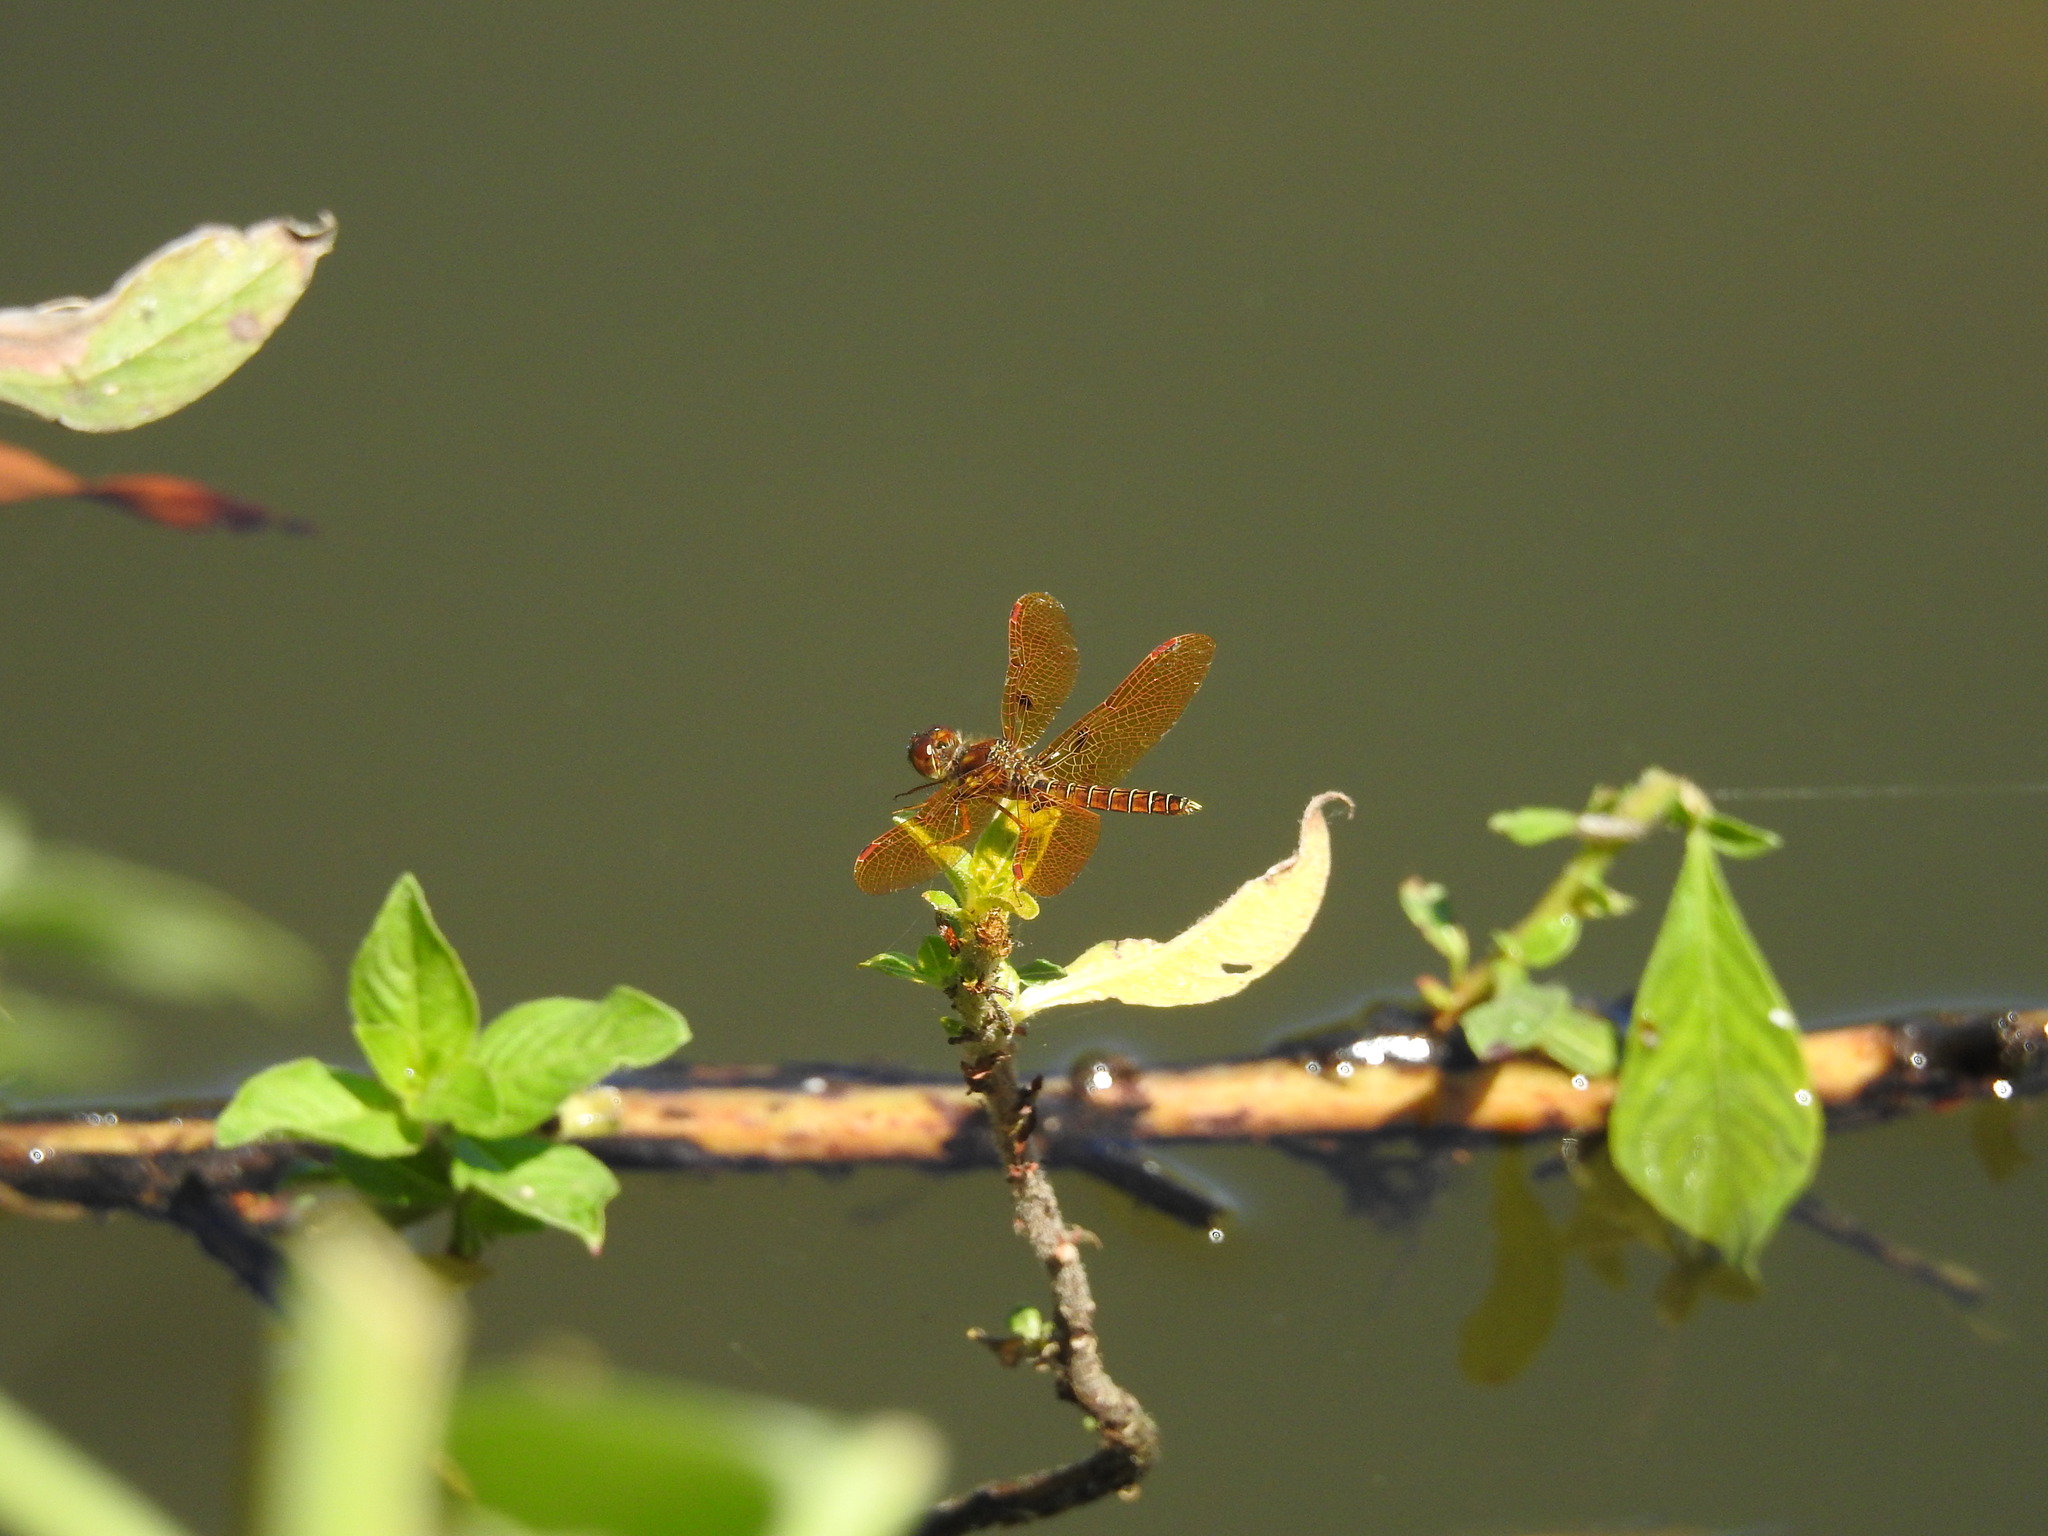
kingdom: Animalia
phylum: Arthropoda
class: Insecta
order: Odonata
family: Libellulidae
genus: Perithemis
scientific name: Perithemis tenera
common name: Eastern amberwing
